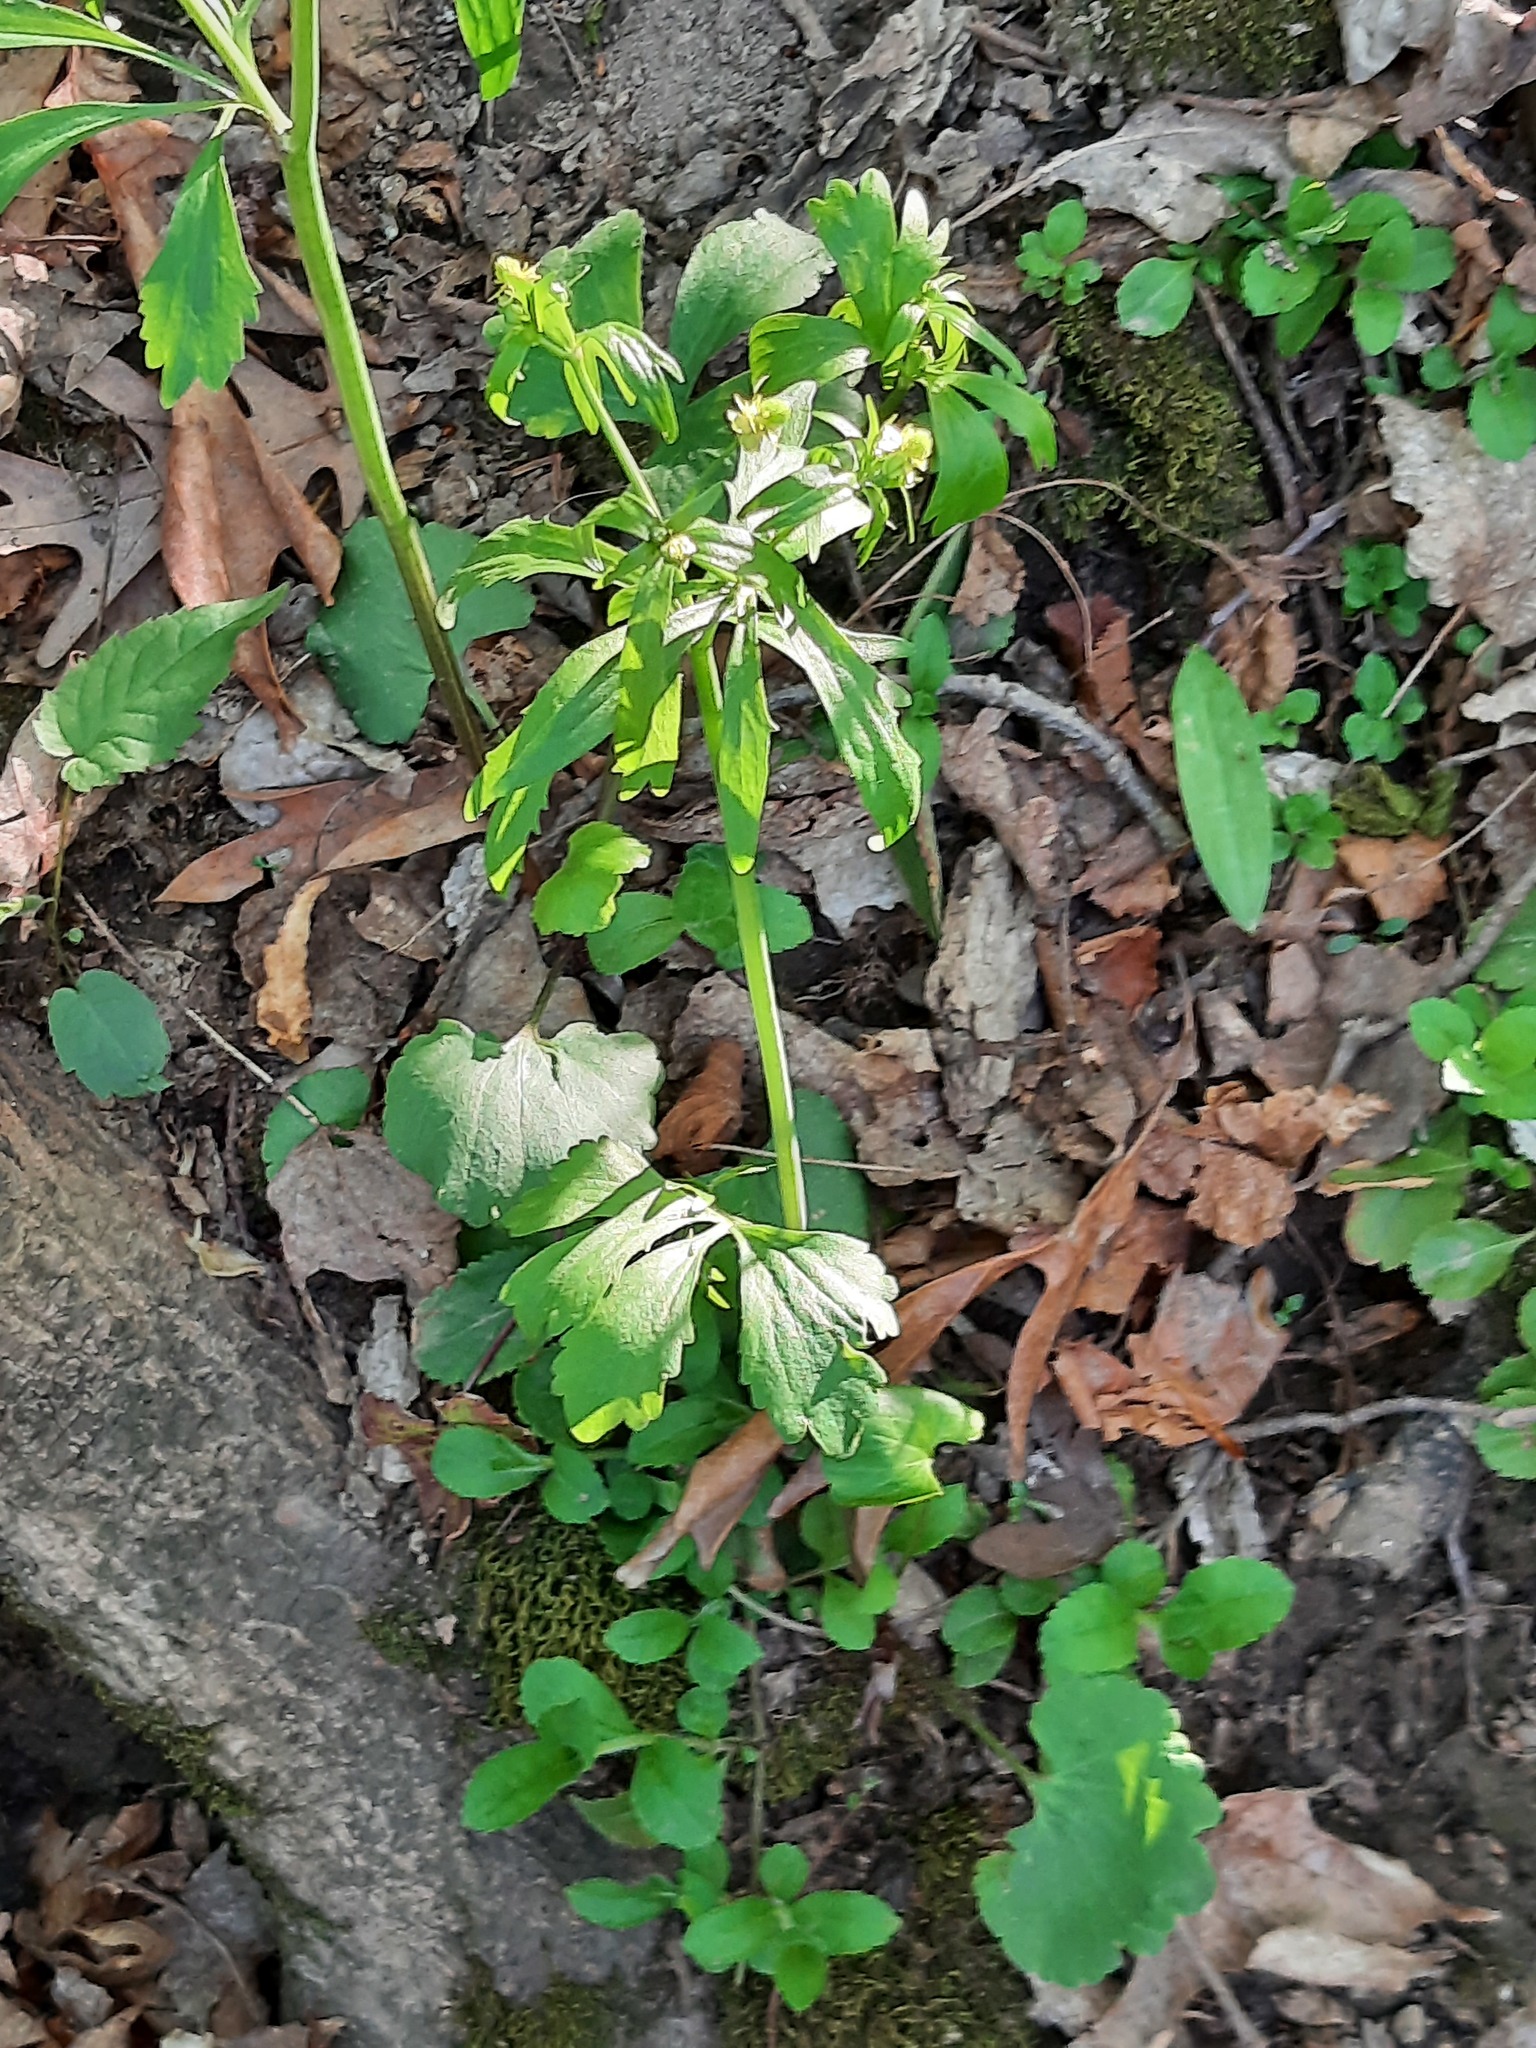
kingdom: Plantae
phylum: Tracheophyta
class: Magnoliopsida
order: Ranunculales
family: Ranunculaceae
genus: Ranunculus
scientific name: Ranunculus abortivus
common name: Early wood buttercup
